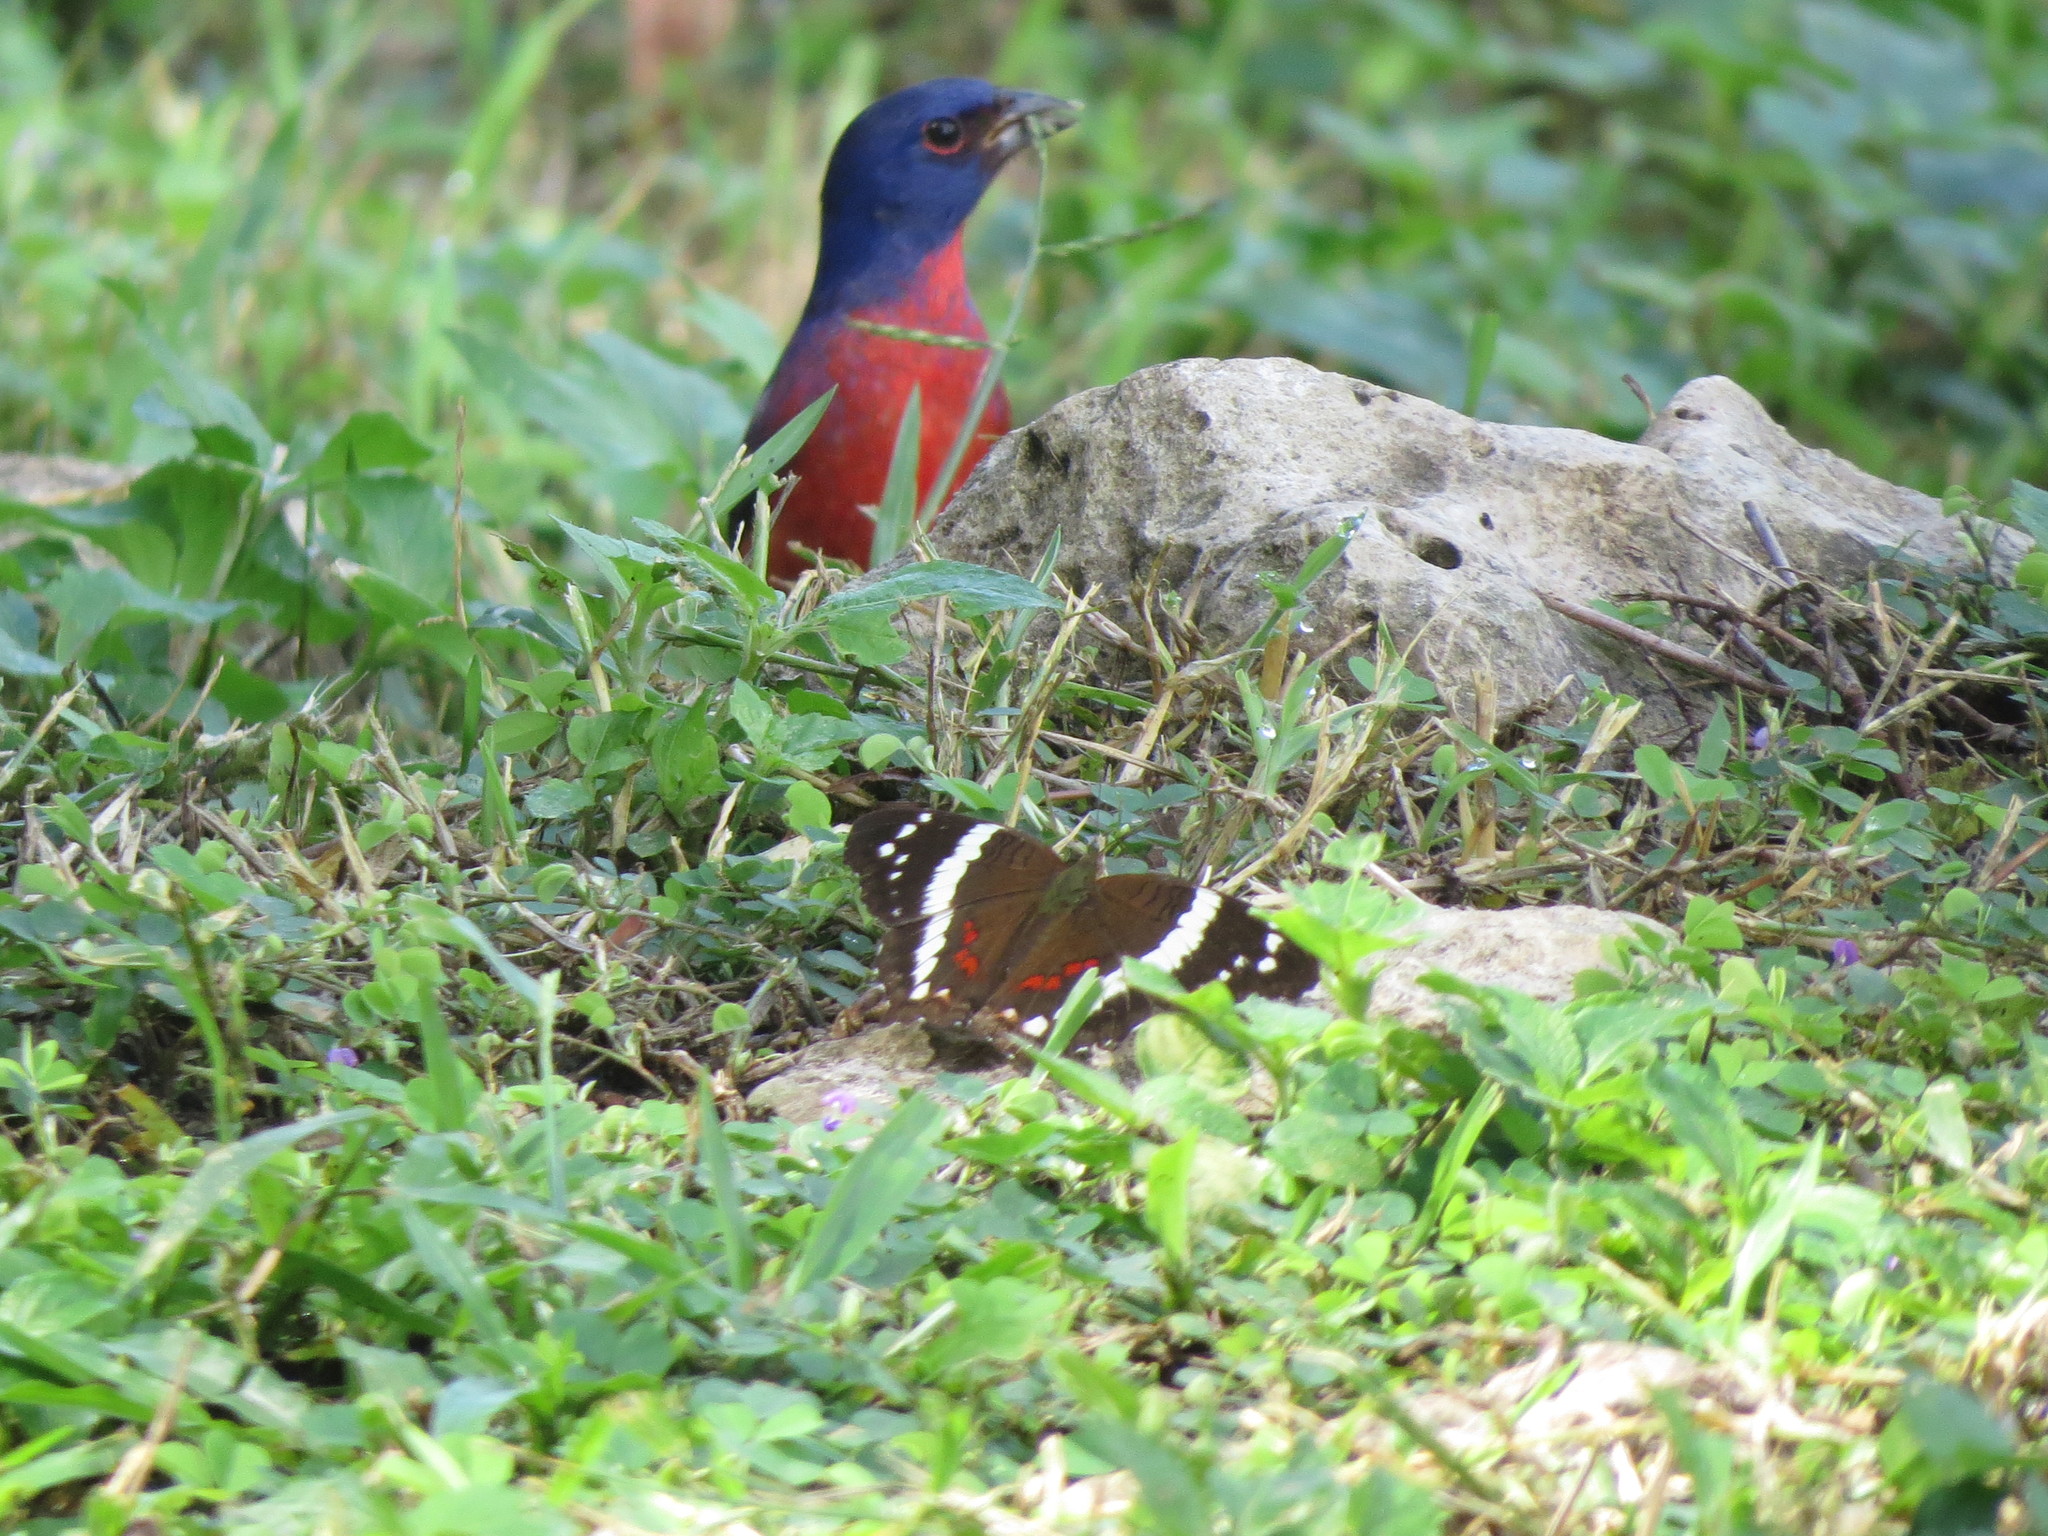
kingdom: Animalia
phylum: Arthropoda
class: Insecta
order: Lepidoptera
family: Nymphalidae
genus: Anartia
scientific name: Anartia fatima
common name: Banded peacock
